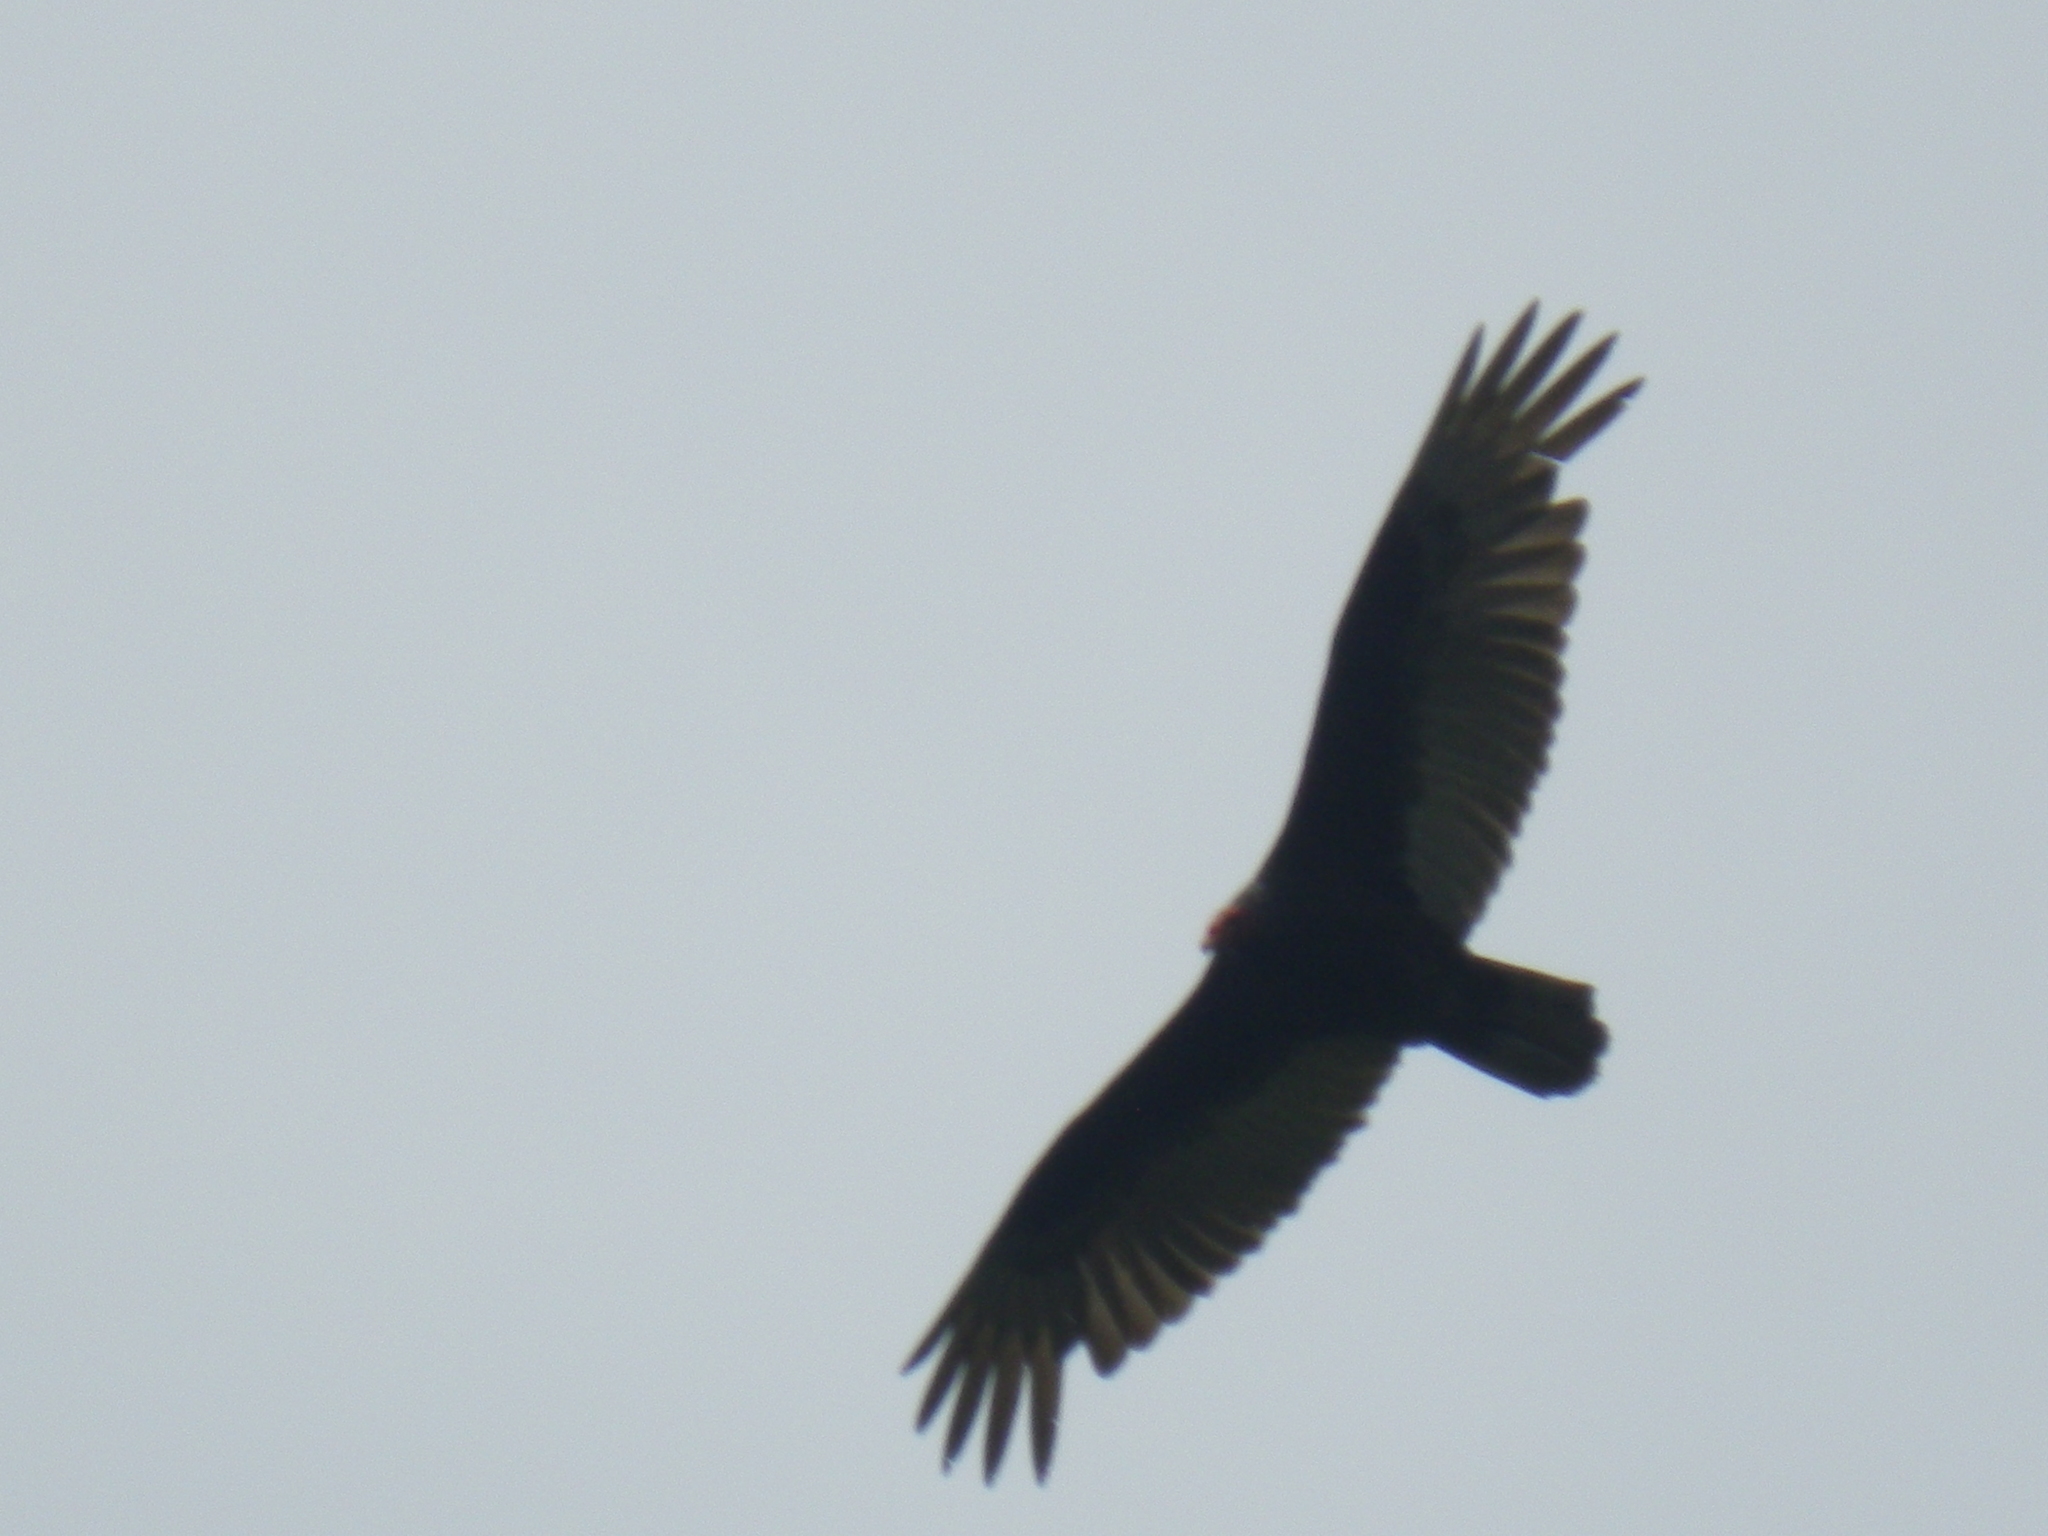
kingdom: Animalia
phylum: Chordata
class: Aves
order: Accipitriformes
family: Cathartidae
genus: Cathartes
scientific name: Cathartes aura
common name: Turkey vulture
